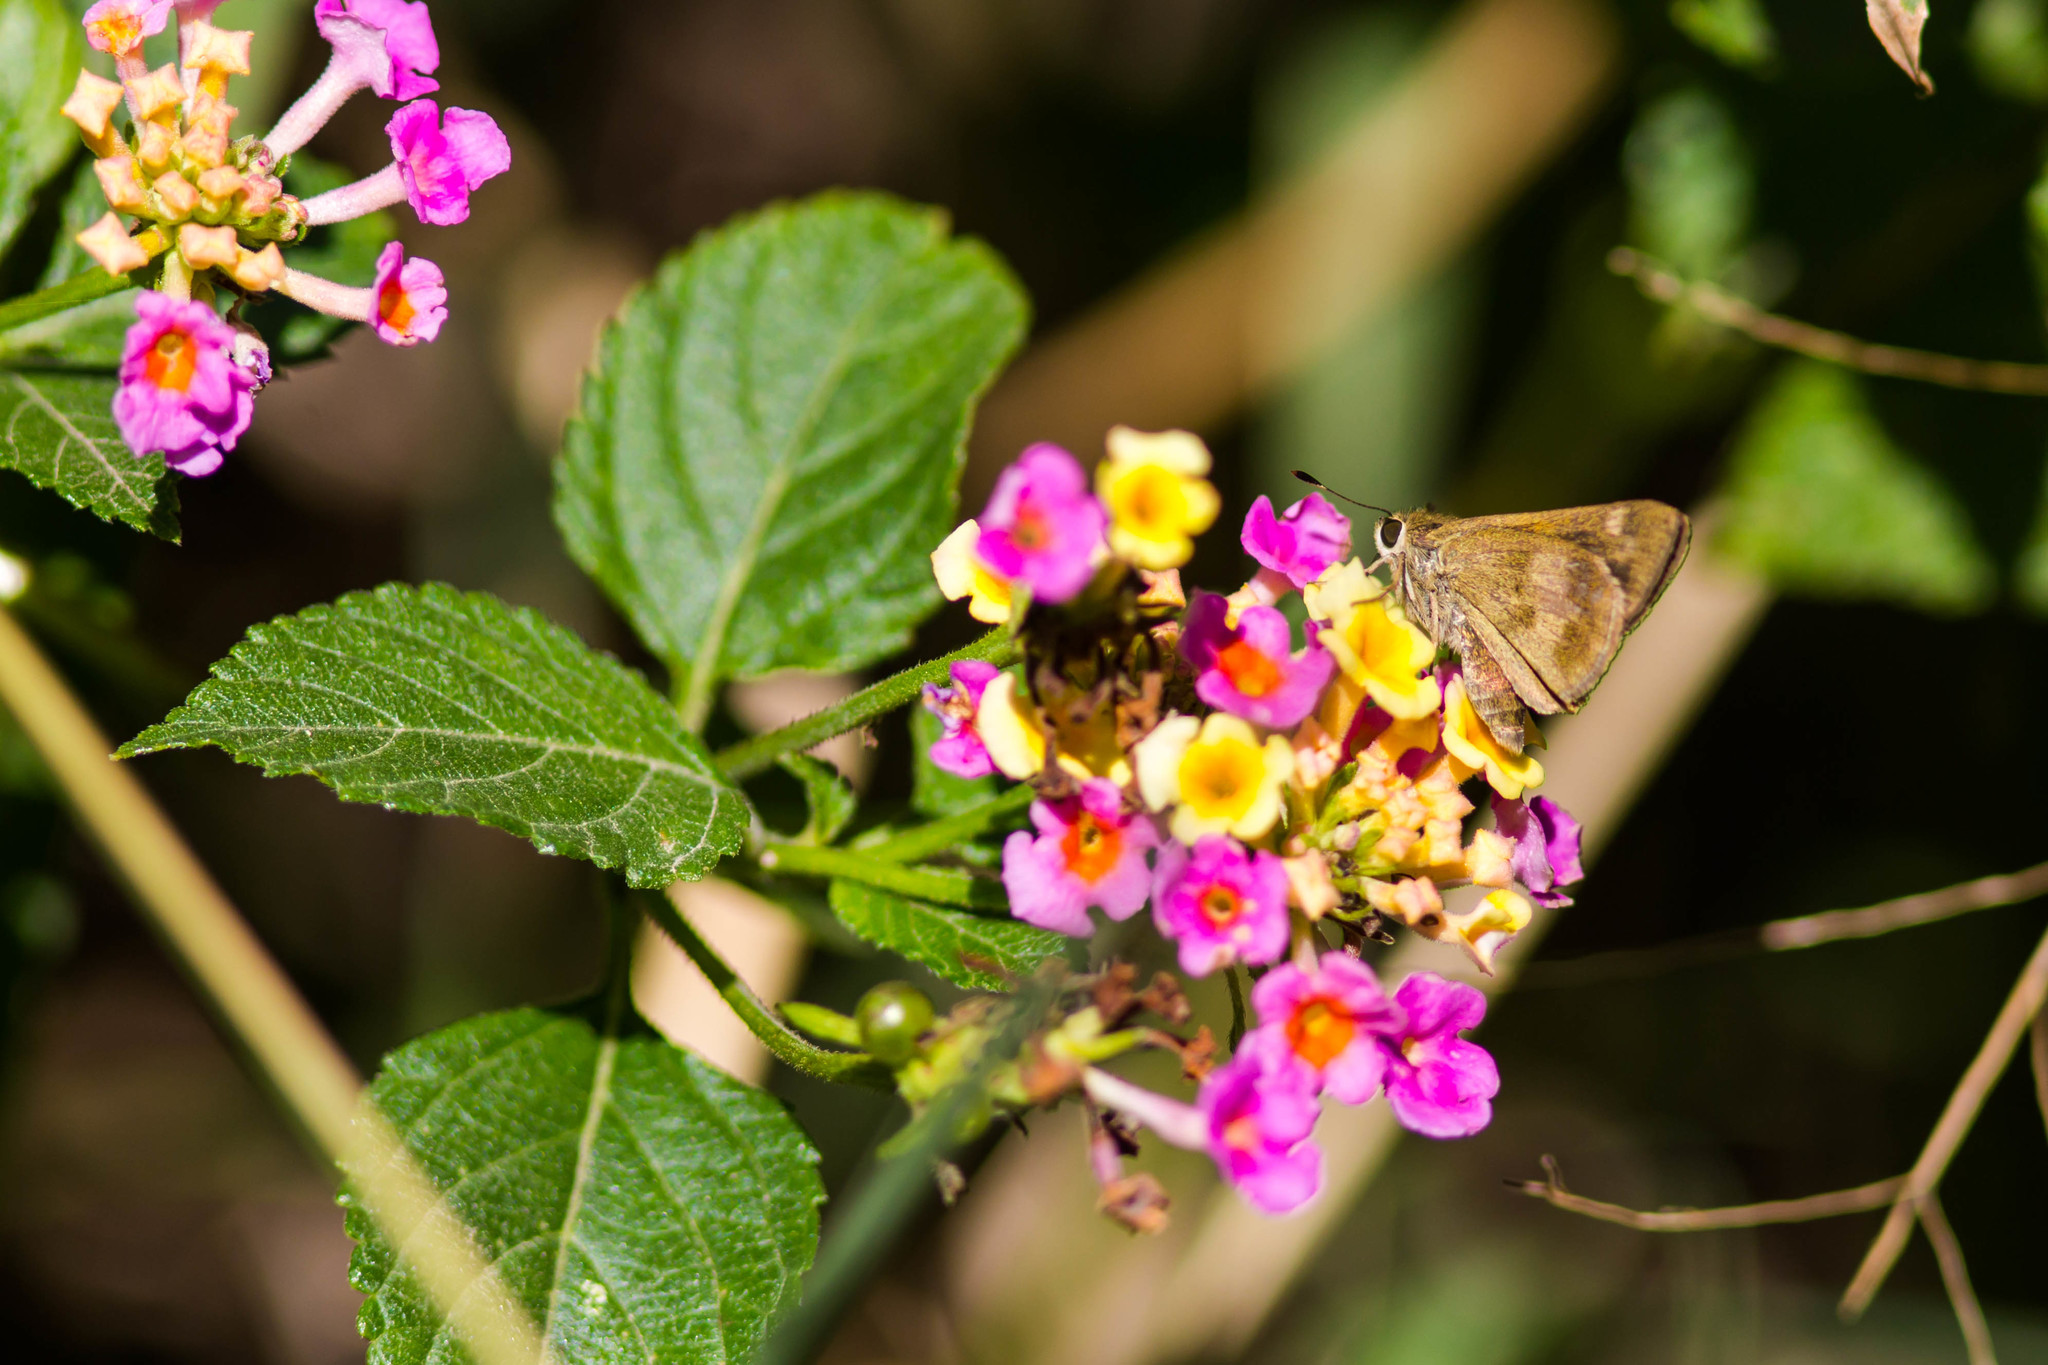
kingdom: Animalia
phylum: Arthropoda
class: Insecta
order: Lepidoptera
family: Hesperiidae
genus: Polites
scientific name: Polites vibex
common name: Whirlabout
